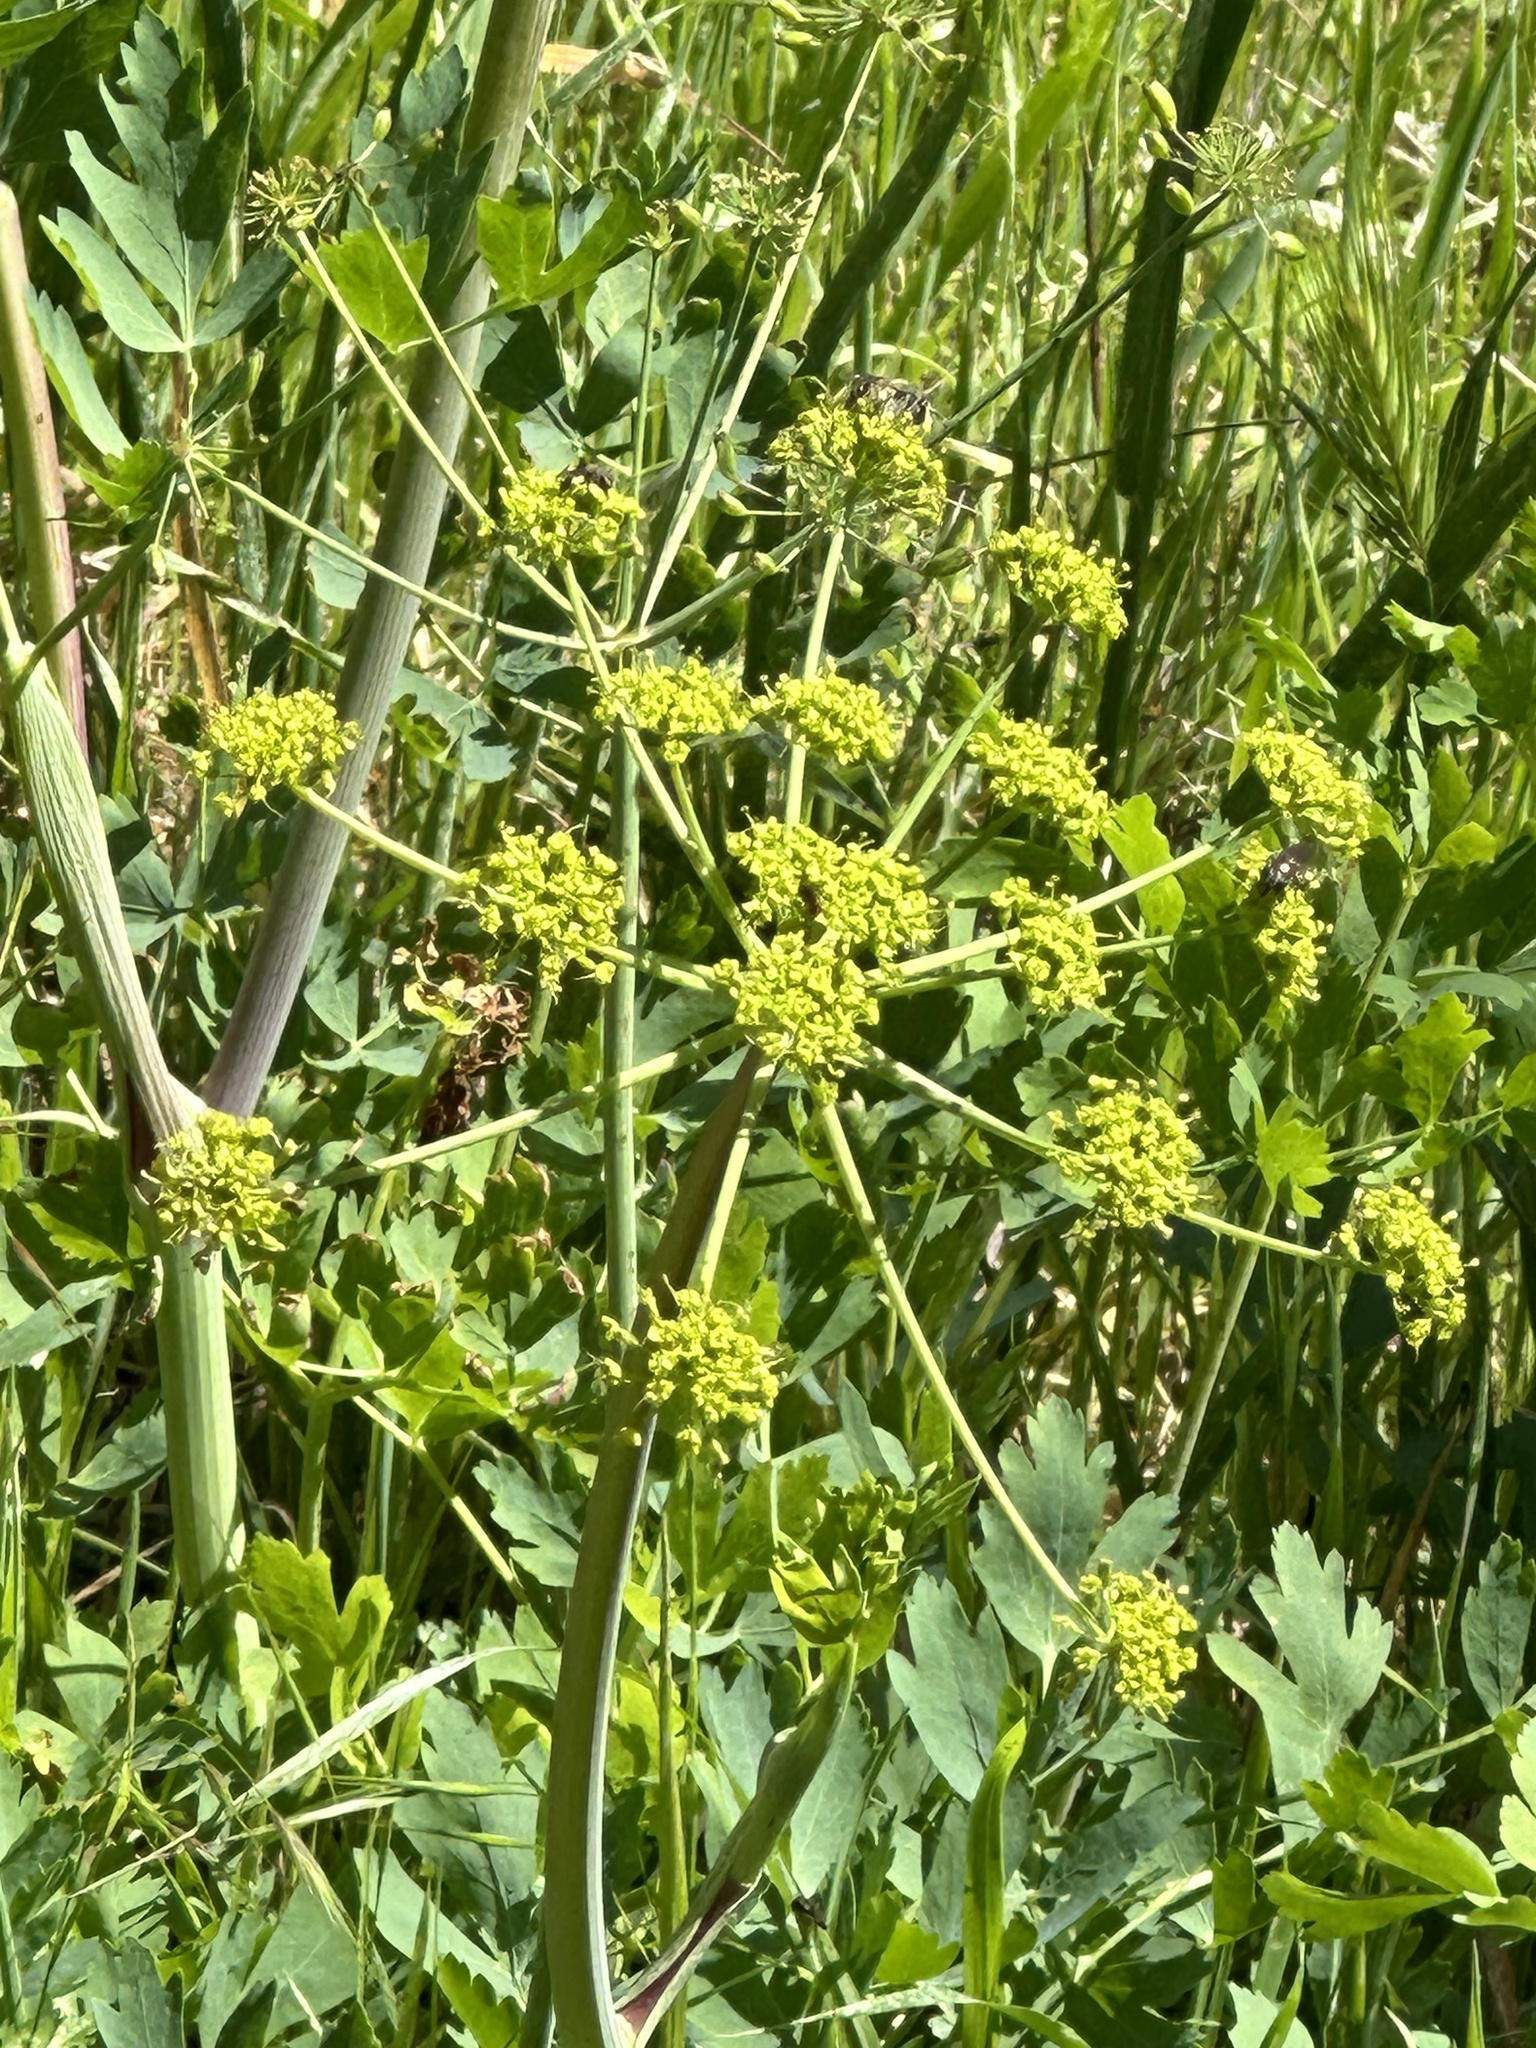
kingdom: Plantae
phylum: Tracheophyta
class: Magnoliopsida
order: Apiales
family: Apiaceae
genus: Lomatium
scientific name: Lomatium californicum
